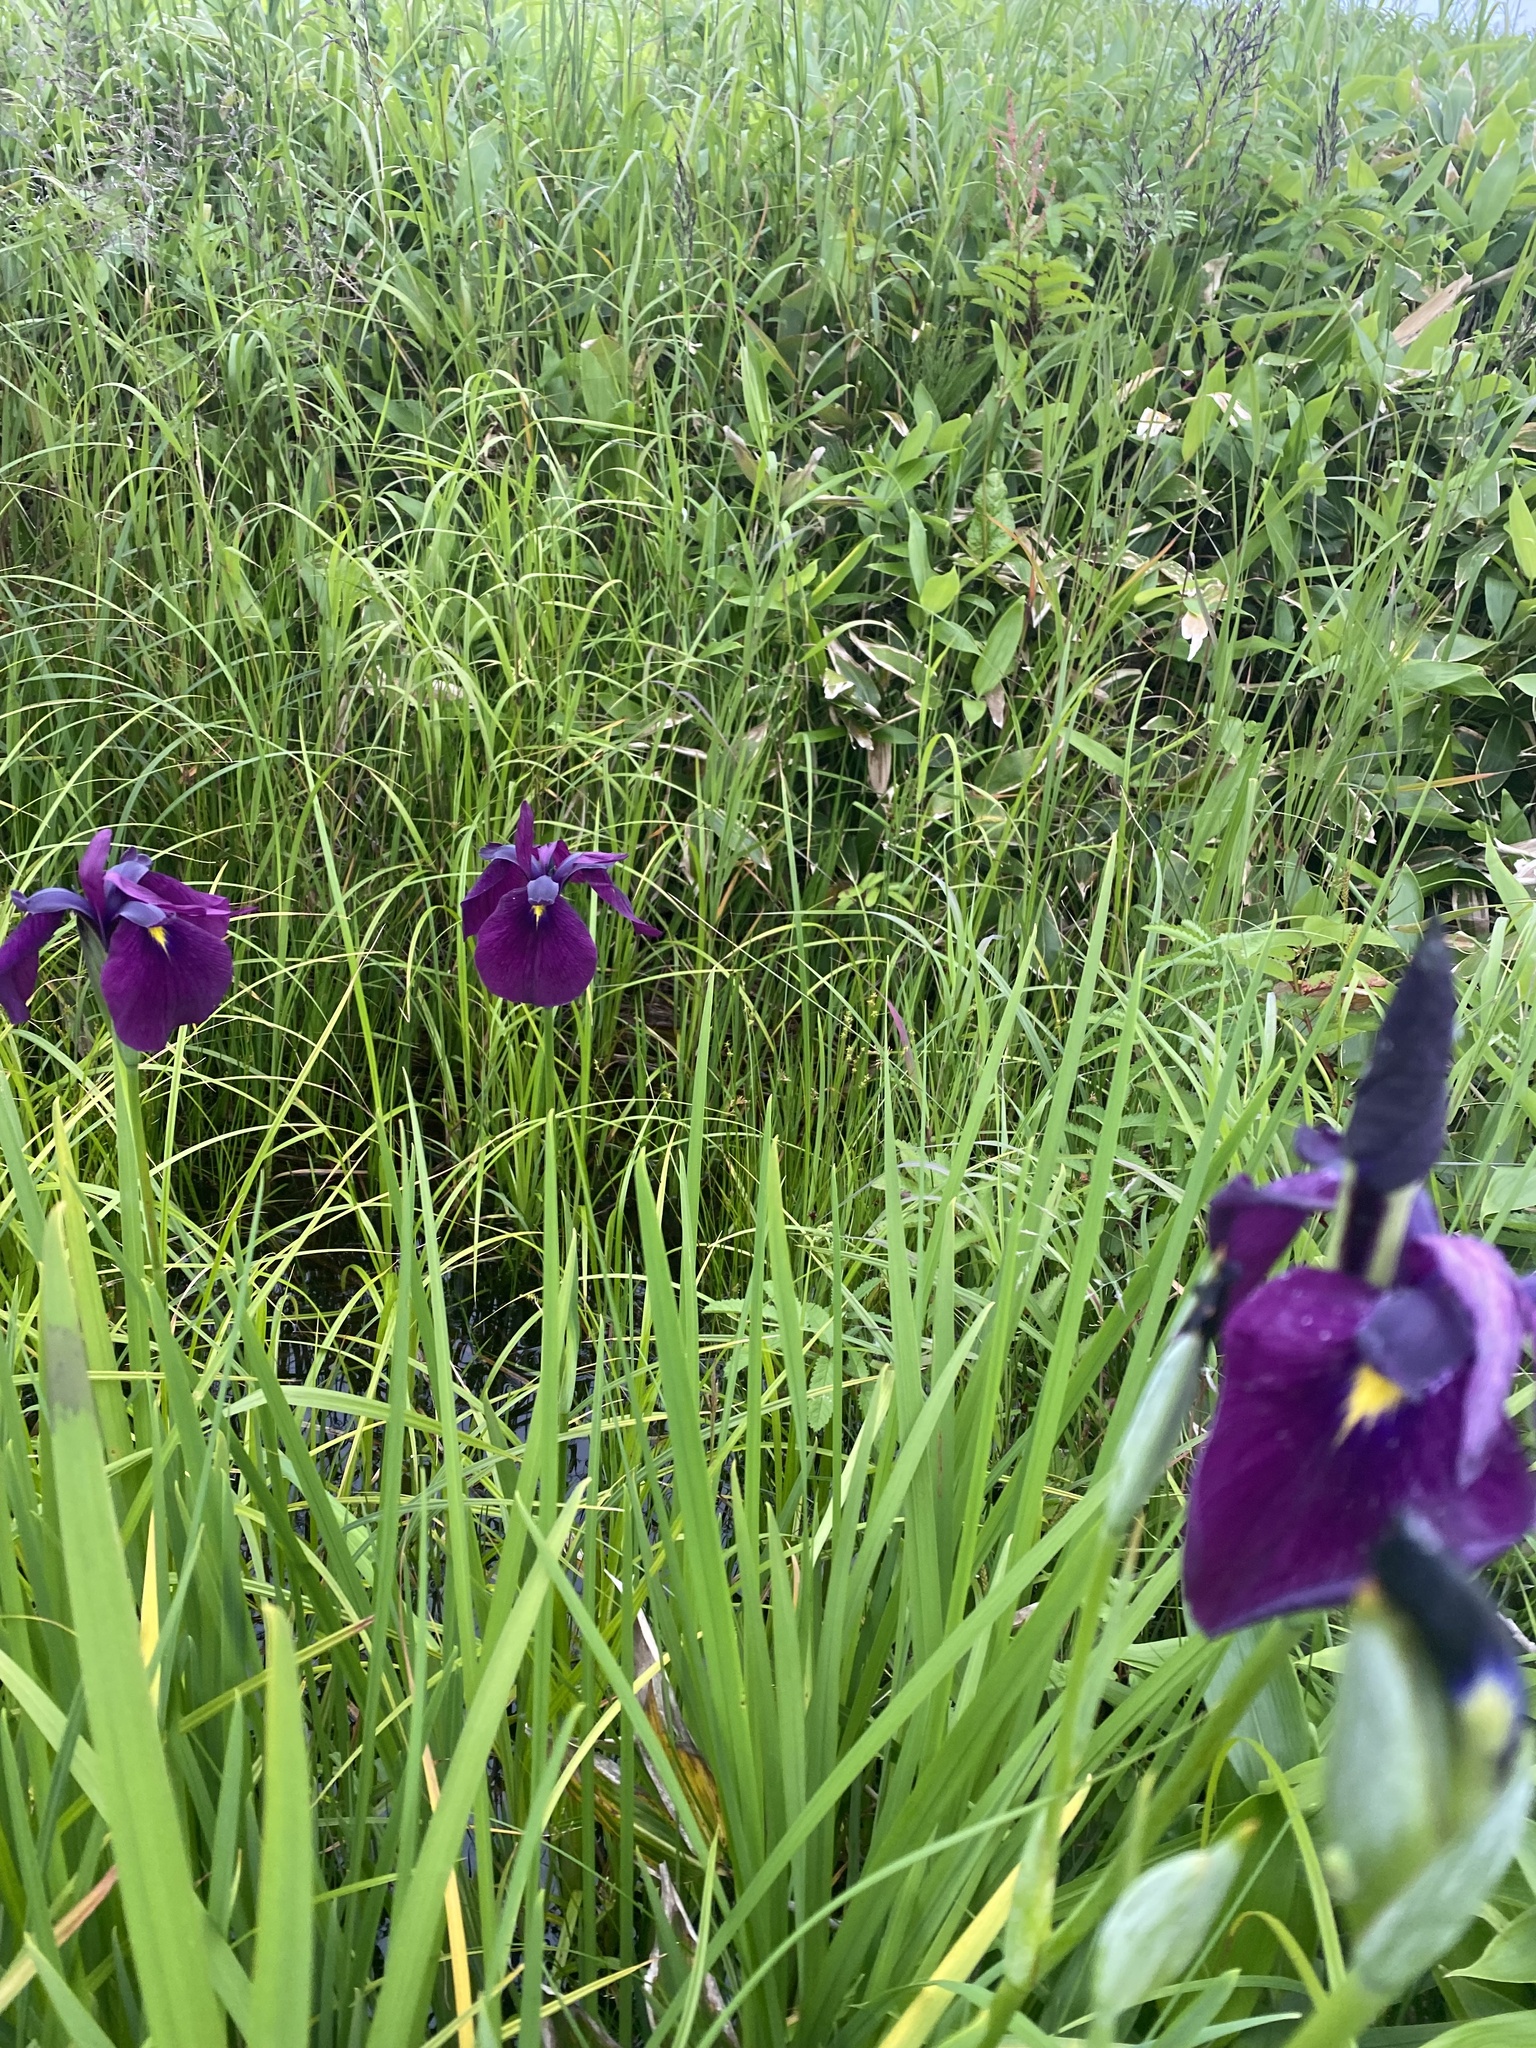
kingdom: Plantae
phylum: Tracheophyta
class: Liliopsida
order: Asparagales
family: Iridaceae
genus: Iris
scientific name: Iris ensata
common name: Beaked iris
